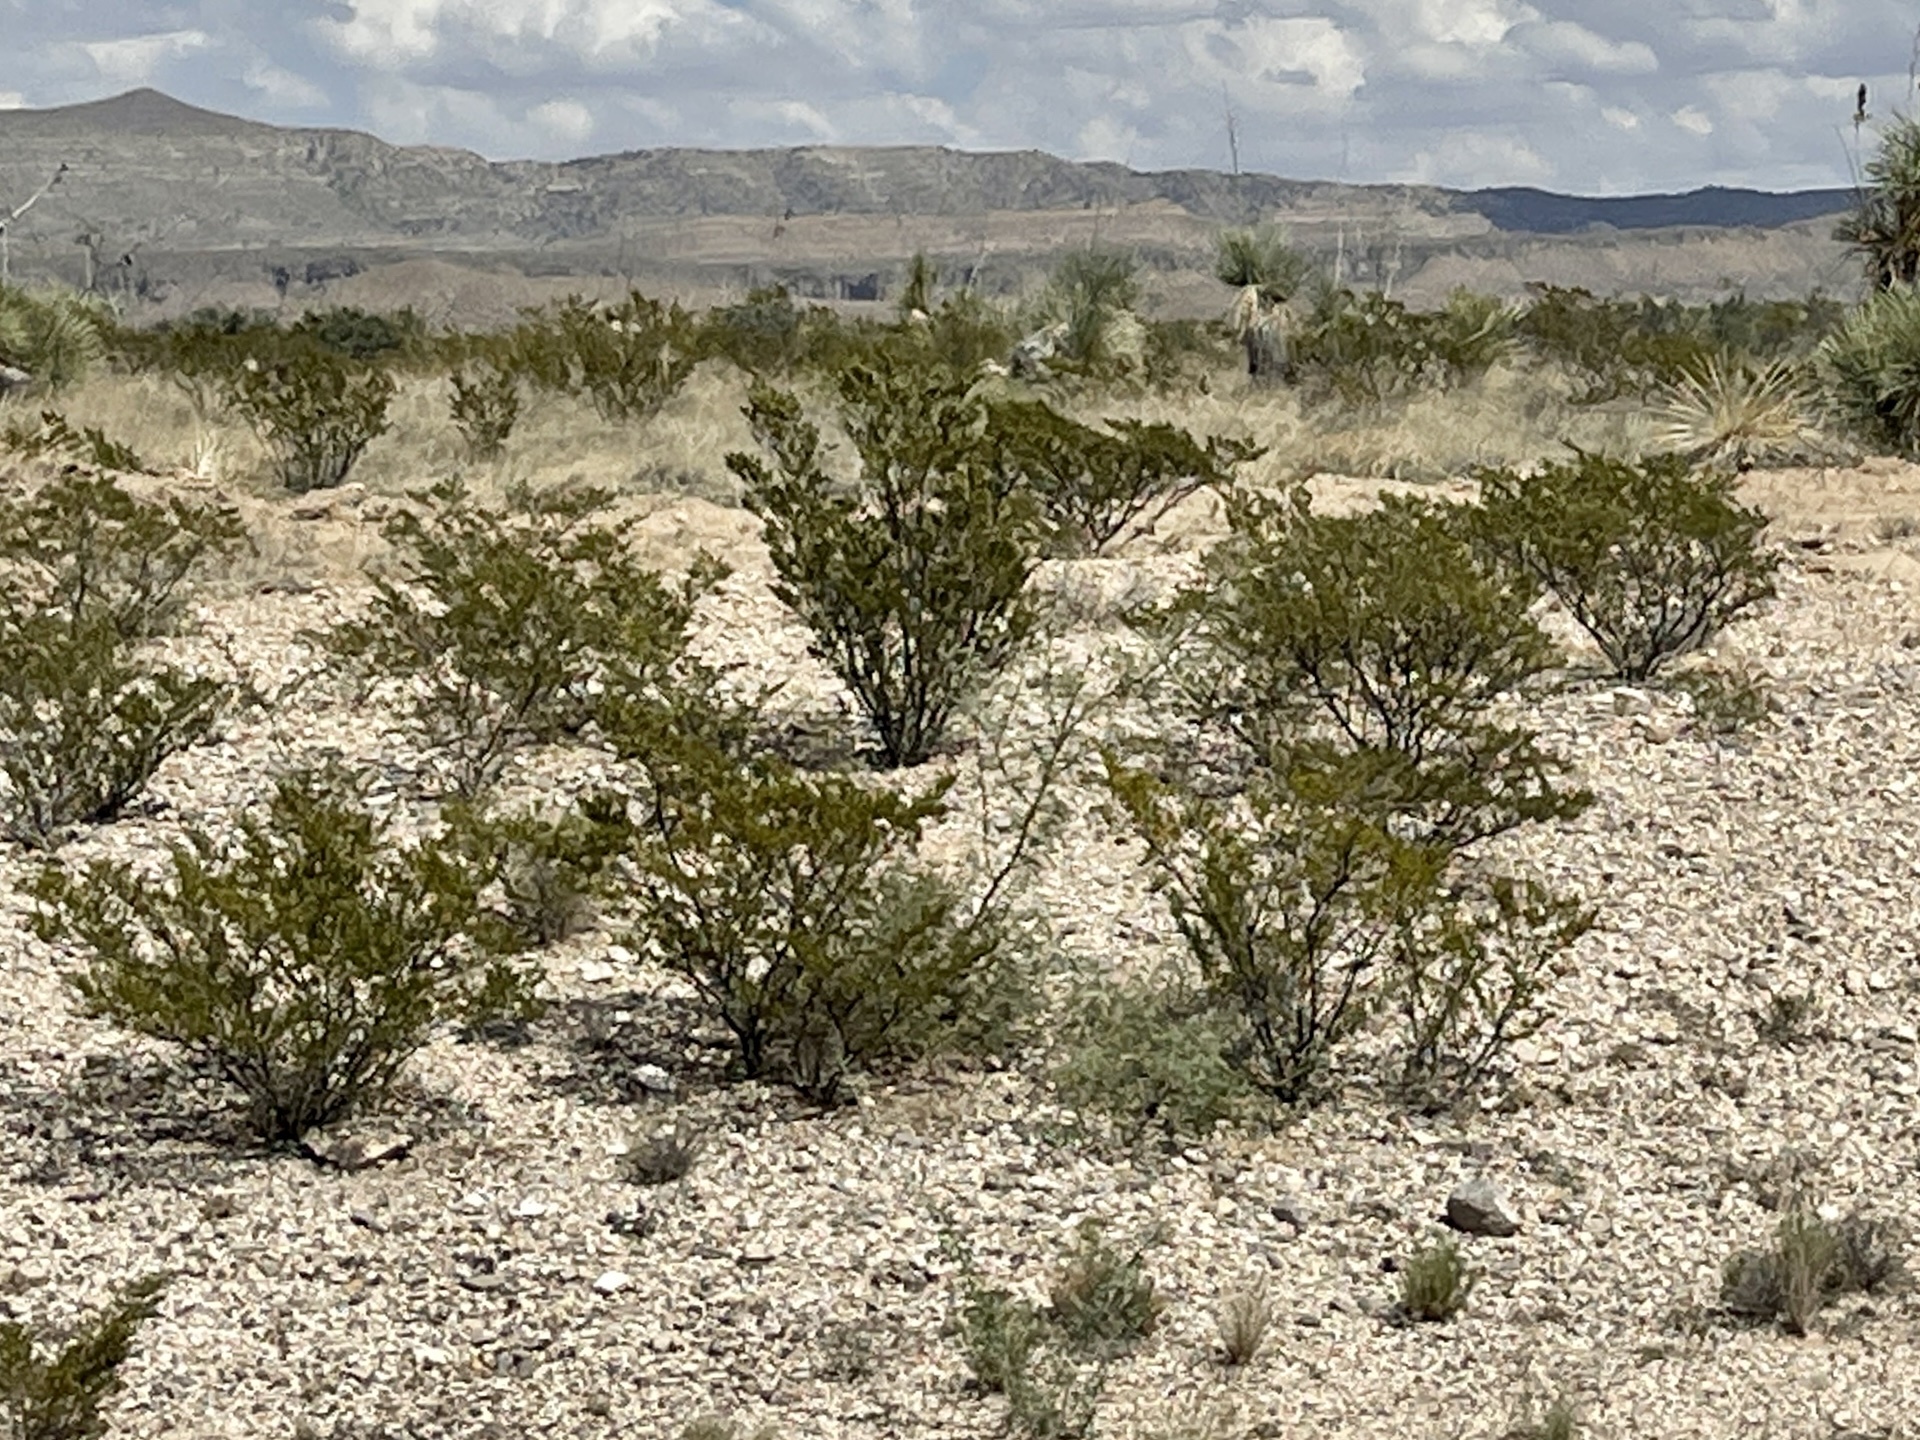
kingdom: Plantae
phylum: Tracheophyta
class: Magnoliopsida
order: Zygophyllales
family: Zygophyllaceae
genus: Larrea
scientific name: Larrea tridentata
